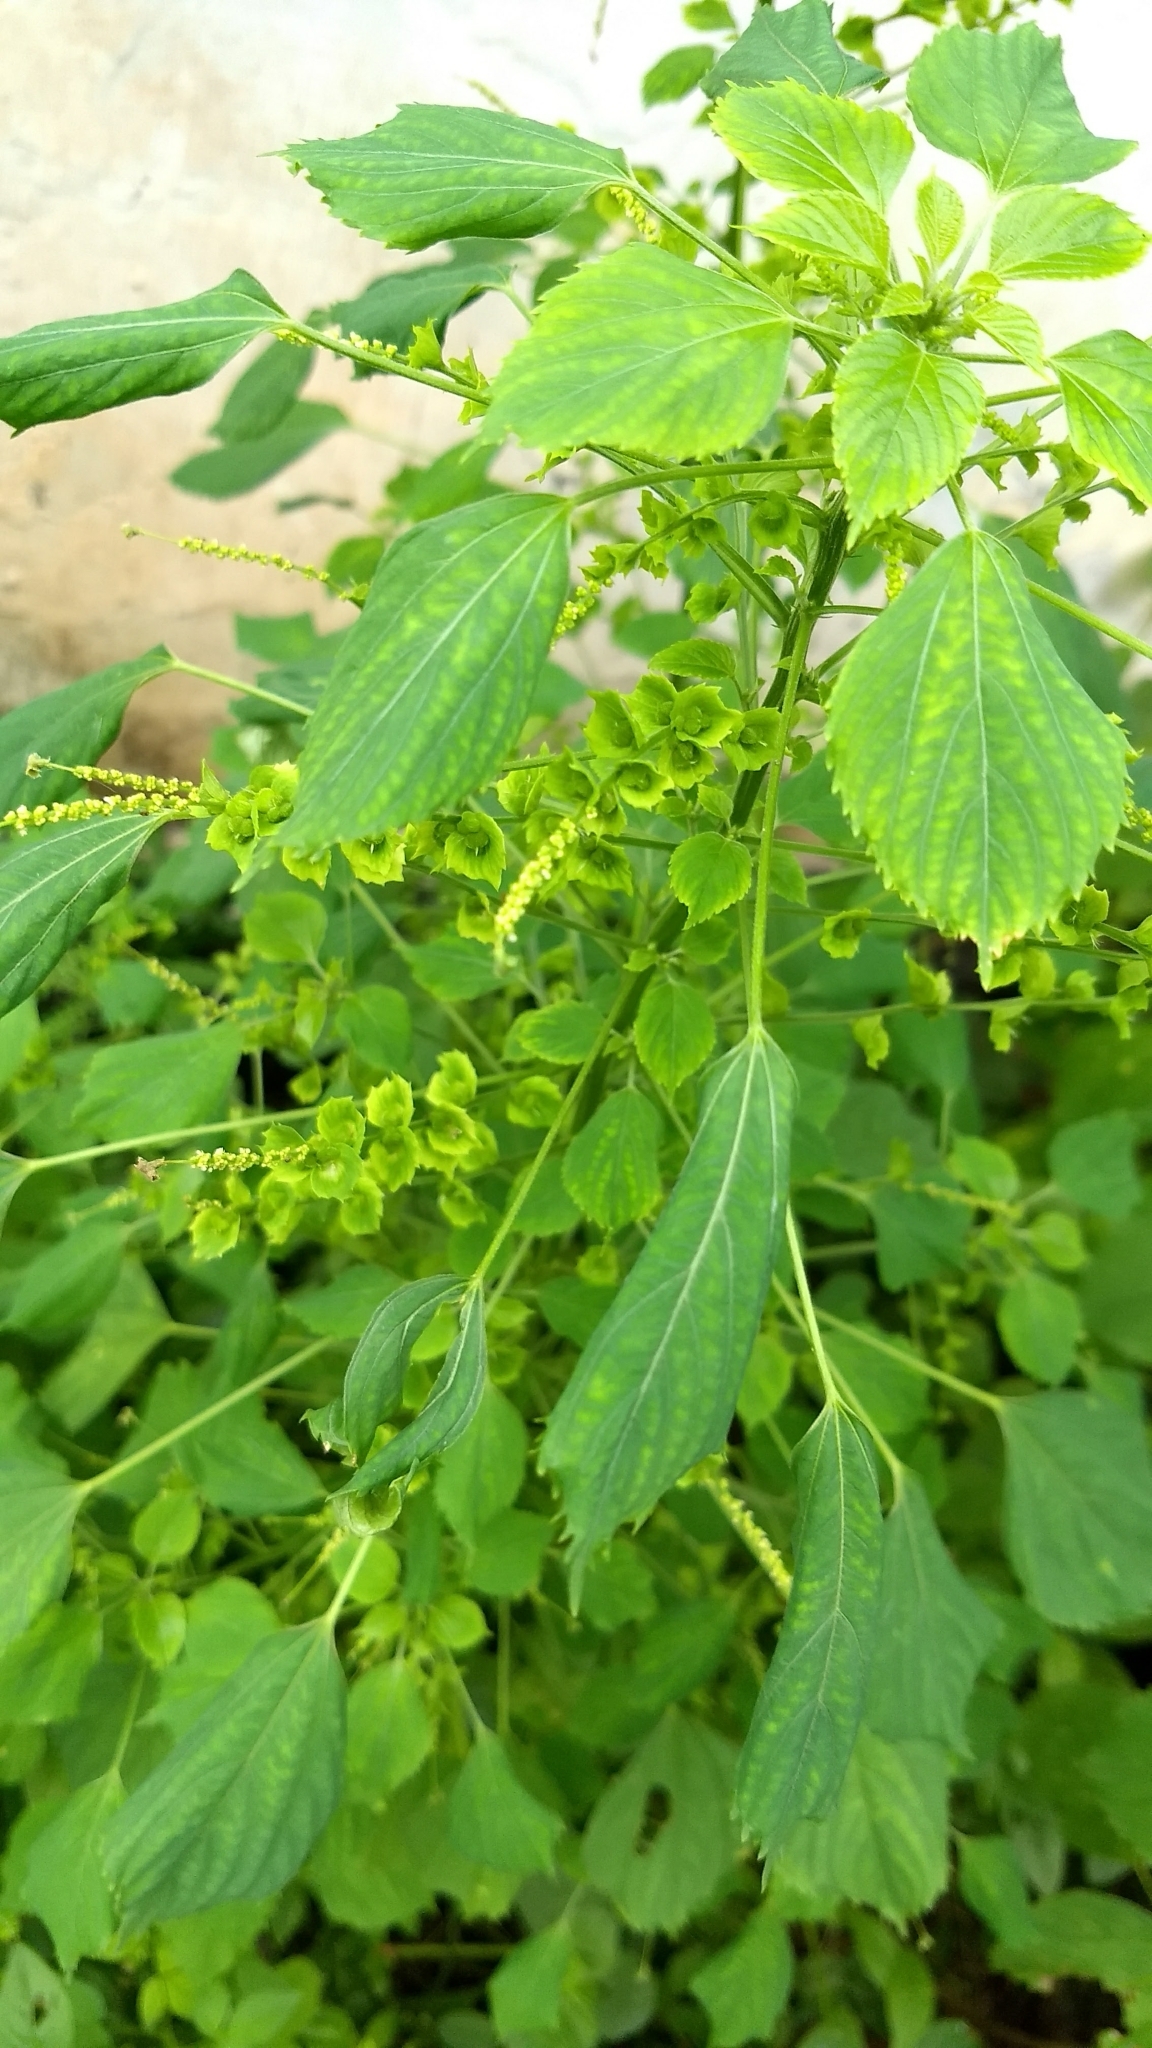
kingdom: Plantae
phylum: Tracheophyta
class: Magnoliopsida
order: Malpighiales
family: Euphorbiaceae
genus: Acalypha
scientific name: Acalypha indica
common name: Indian acalypha
